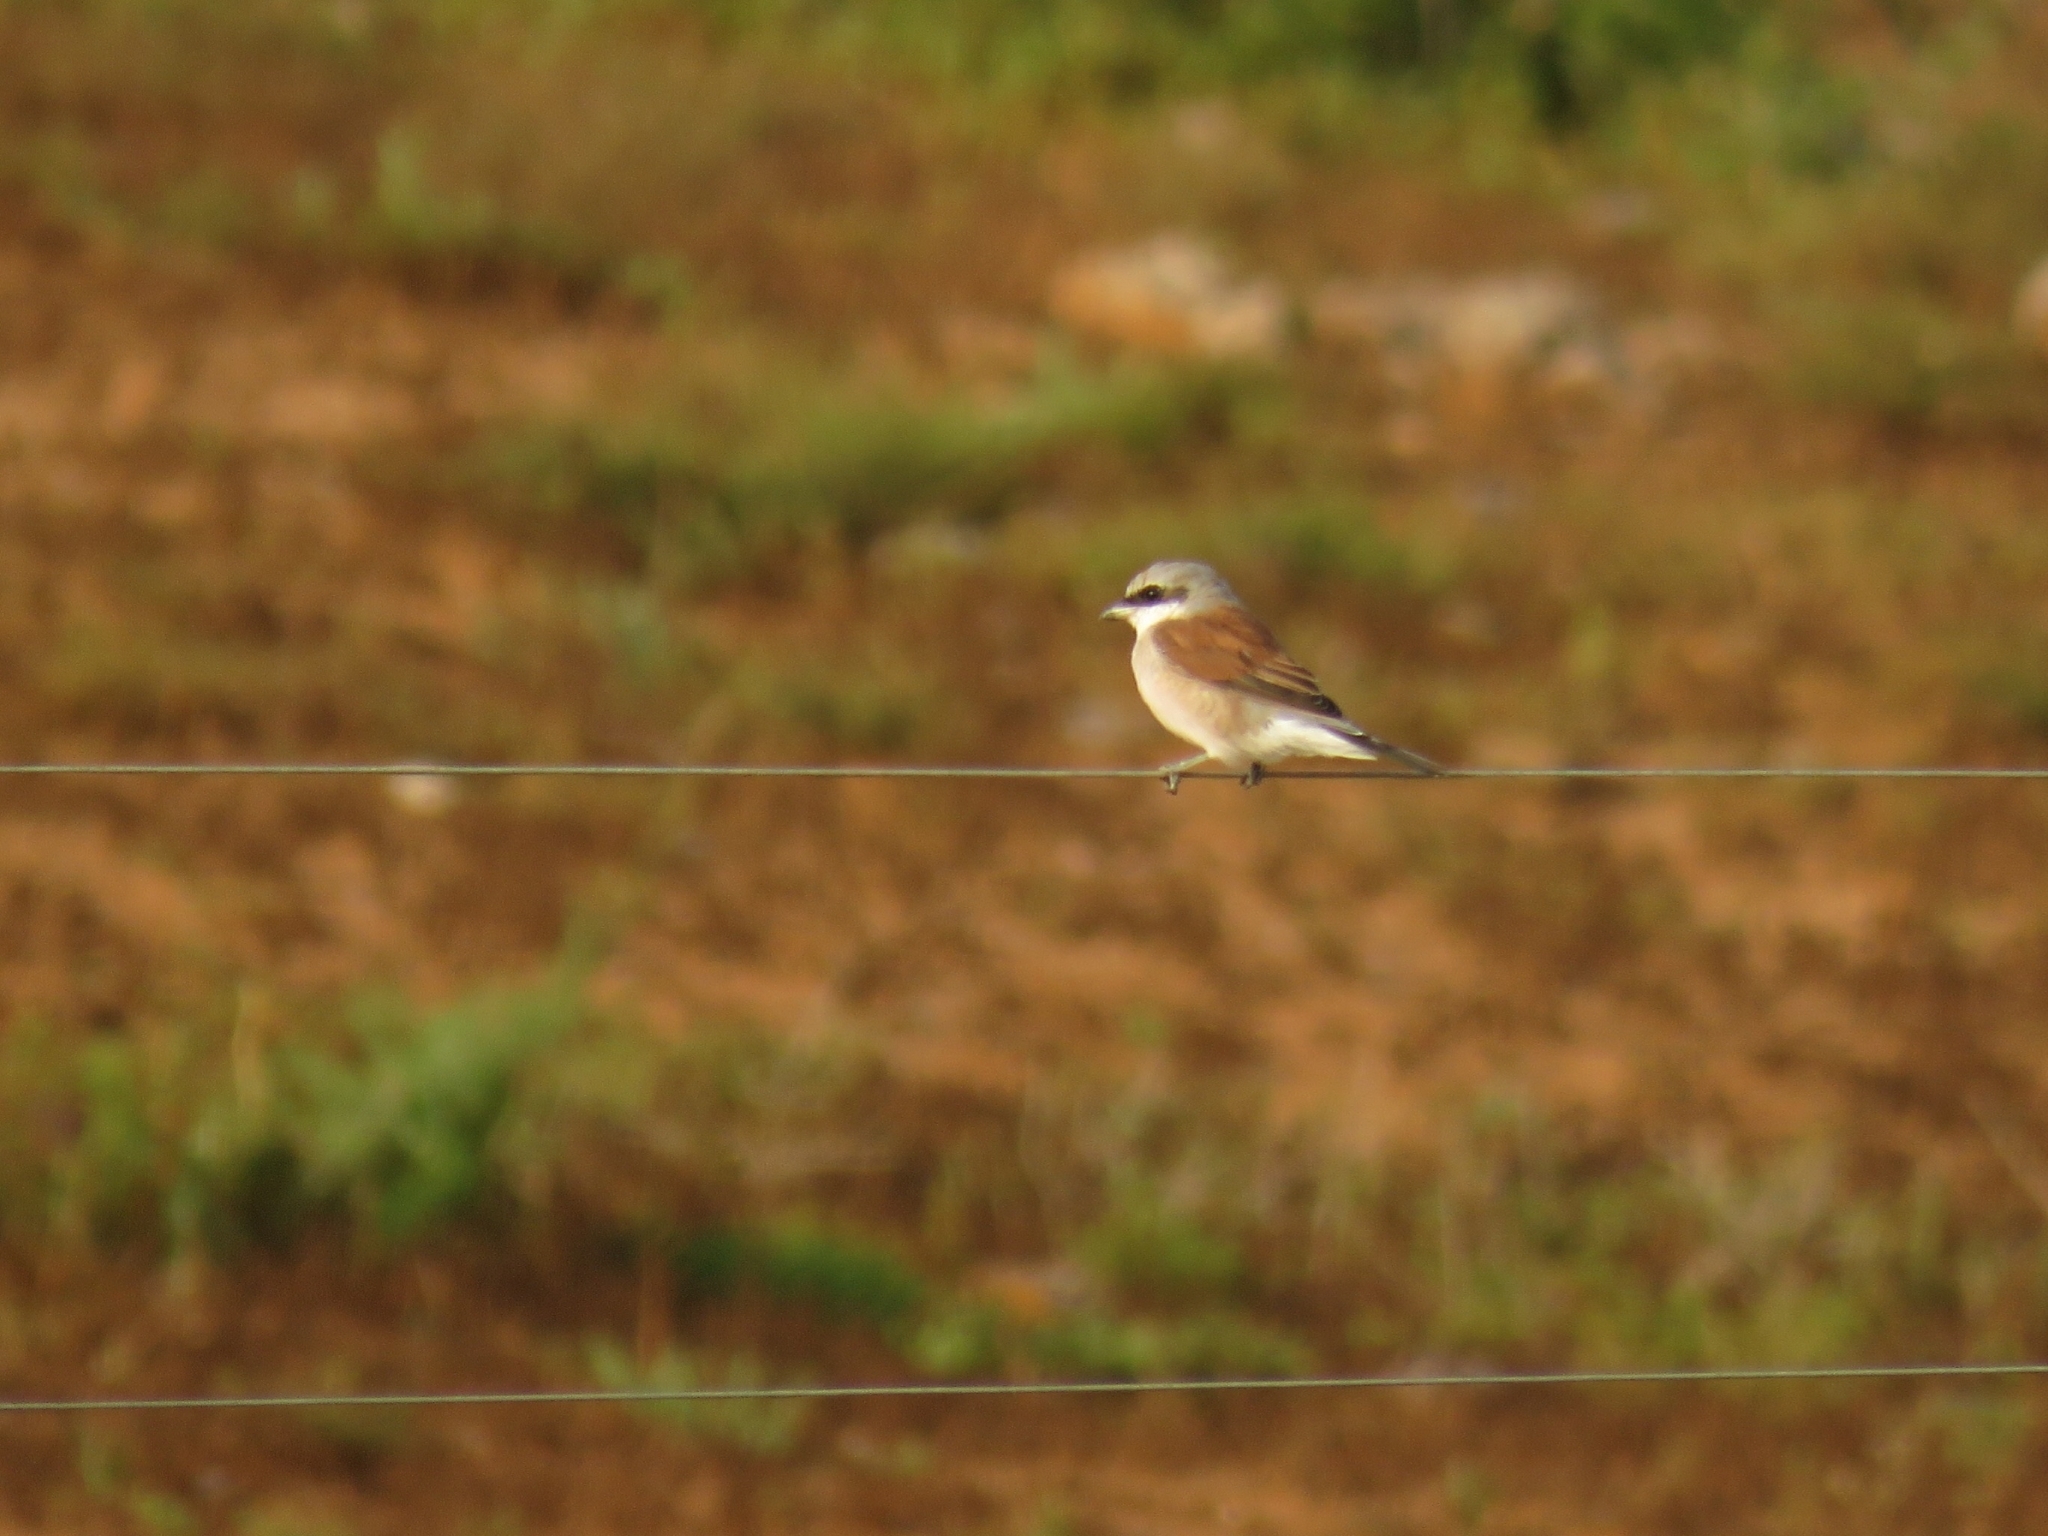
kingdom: Animalia
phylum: Chordata
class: Aves
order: Passeriformes
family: Laniidae
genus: Lanius
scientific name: Lanius collurio
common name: Red-backed shrike
